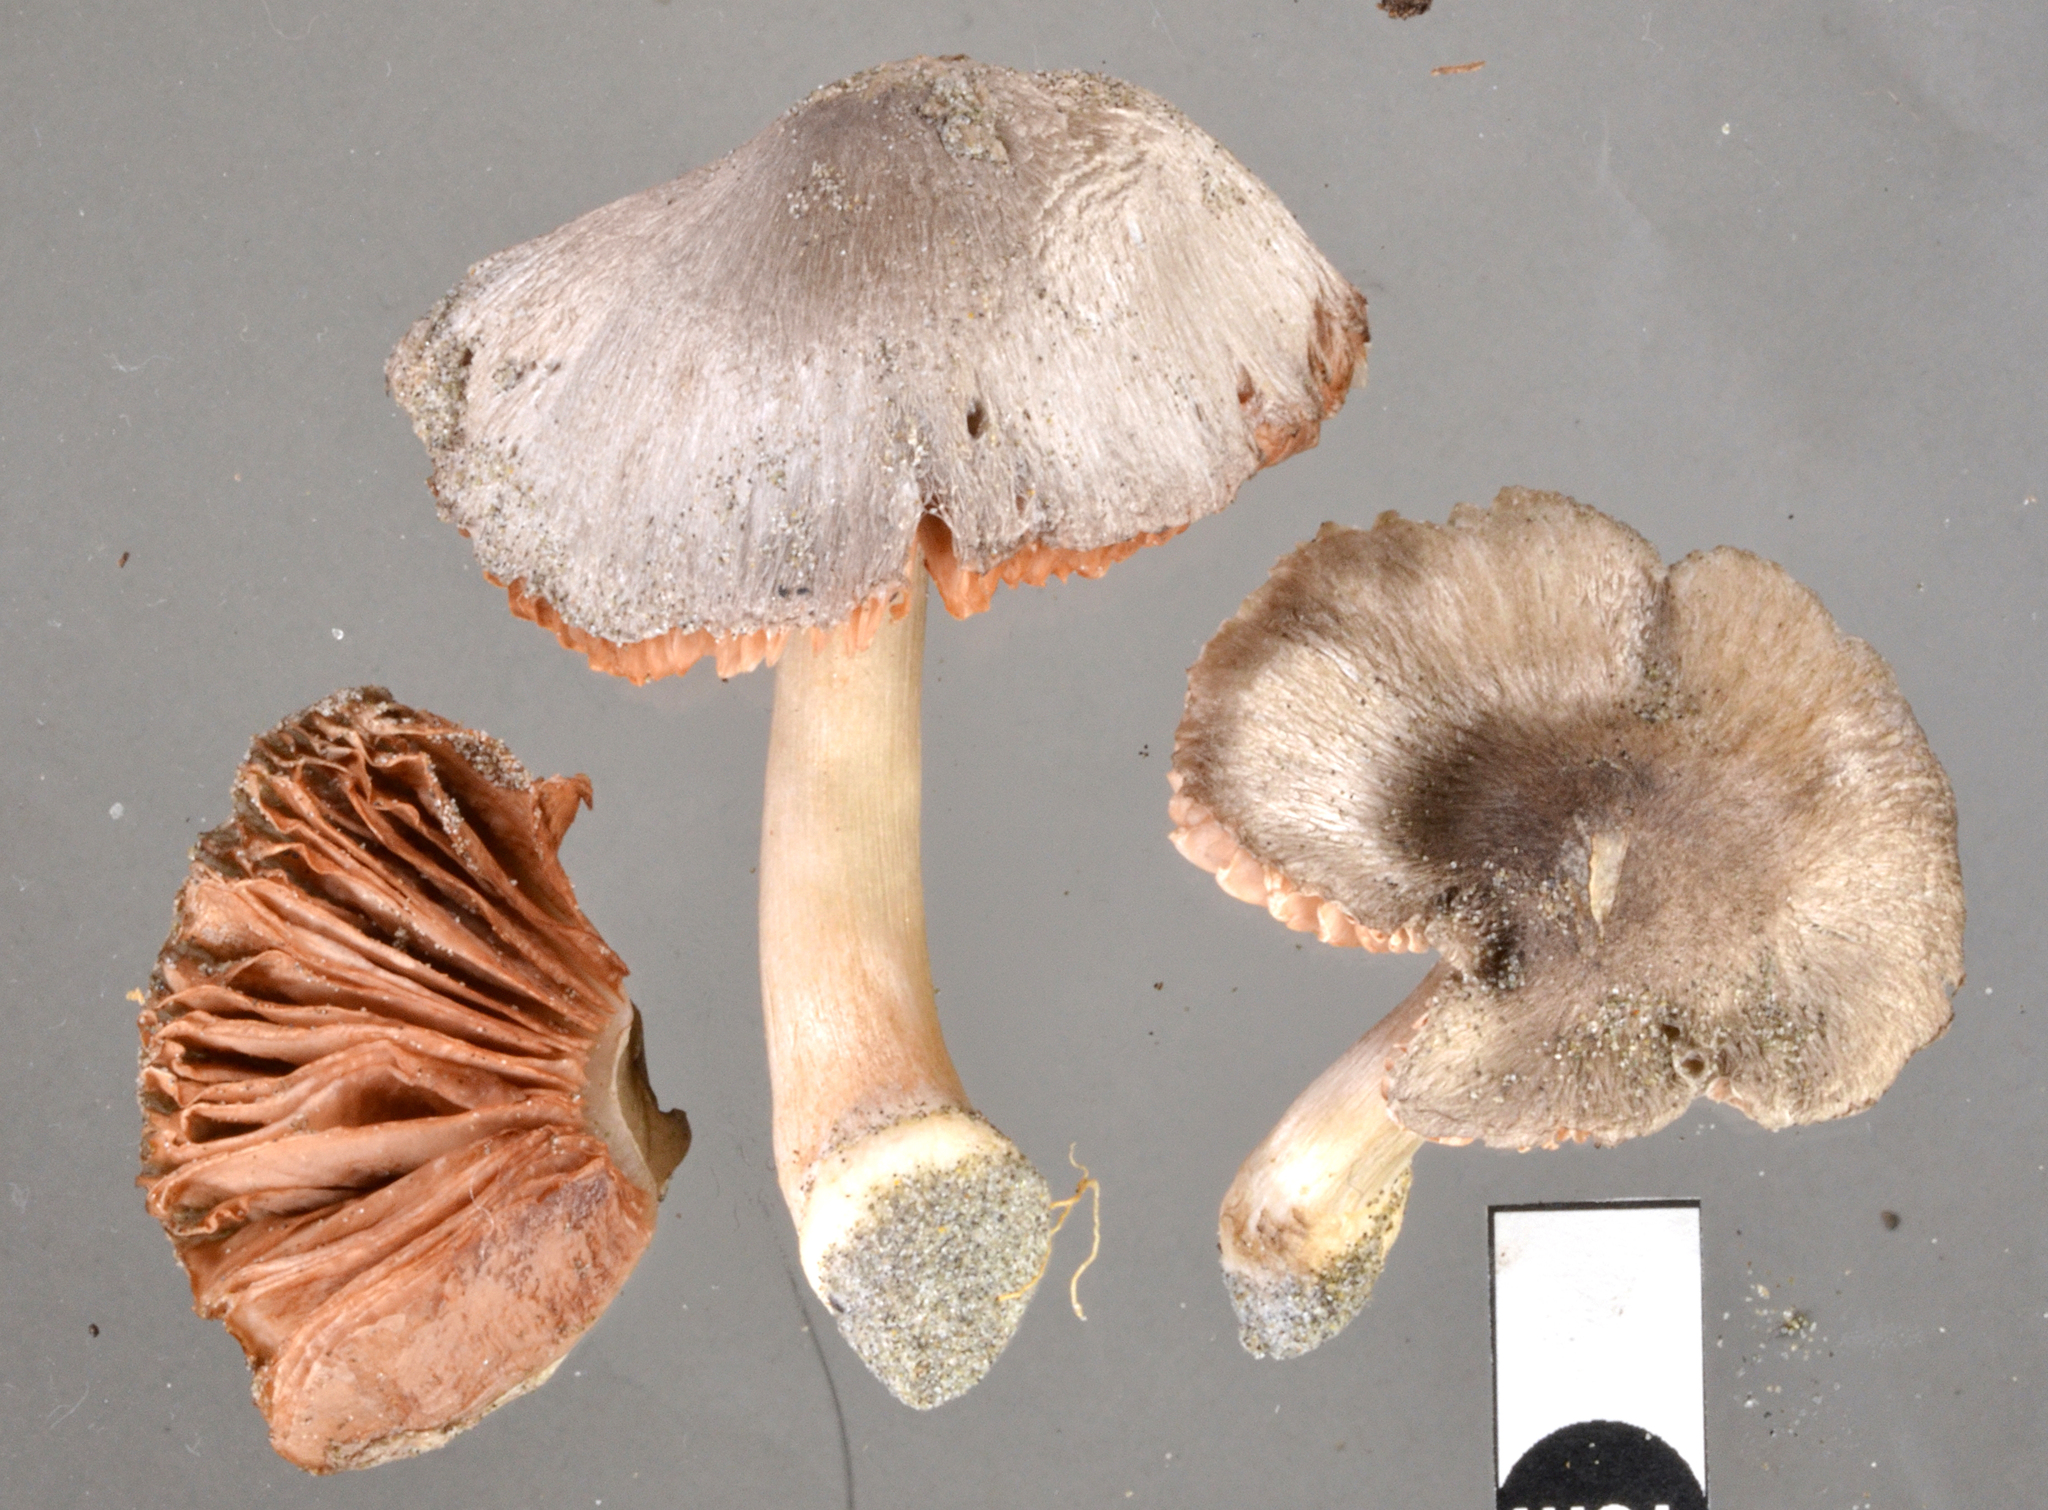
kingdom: Fungi
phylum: Basidiomycota
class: Agaricomycetes
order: Agaricales
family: Pluteaceae
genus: Volvariella
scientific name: Volvariella dunensis
